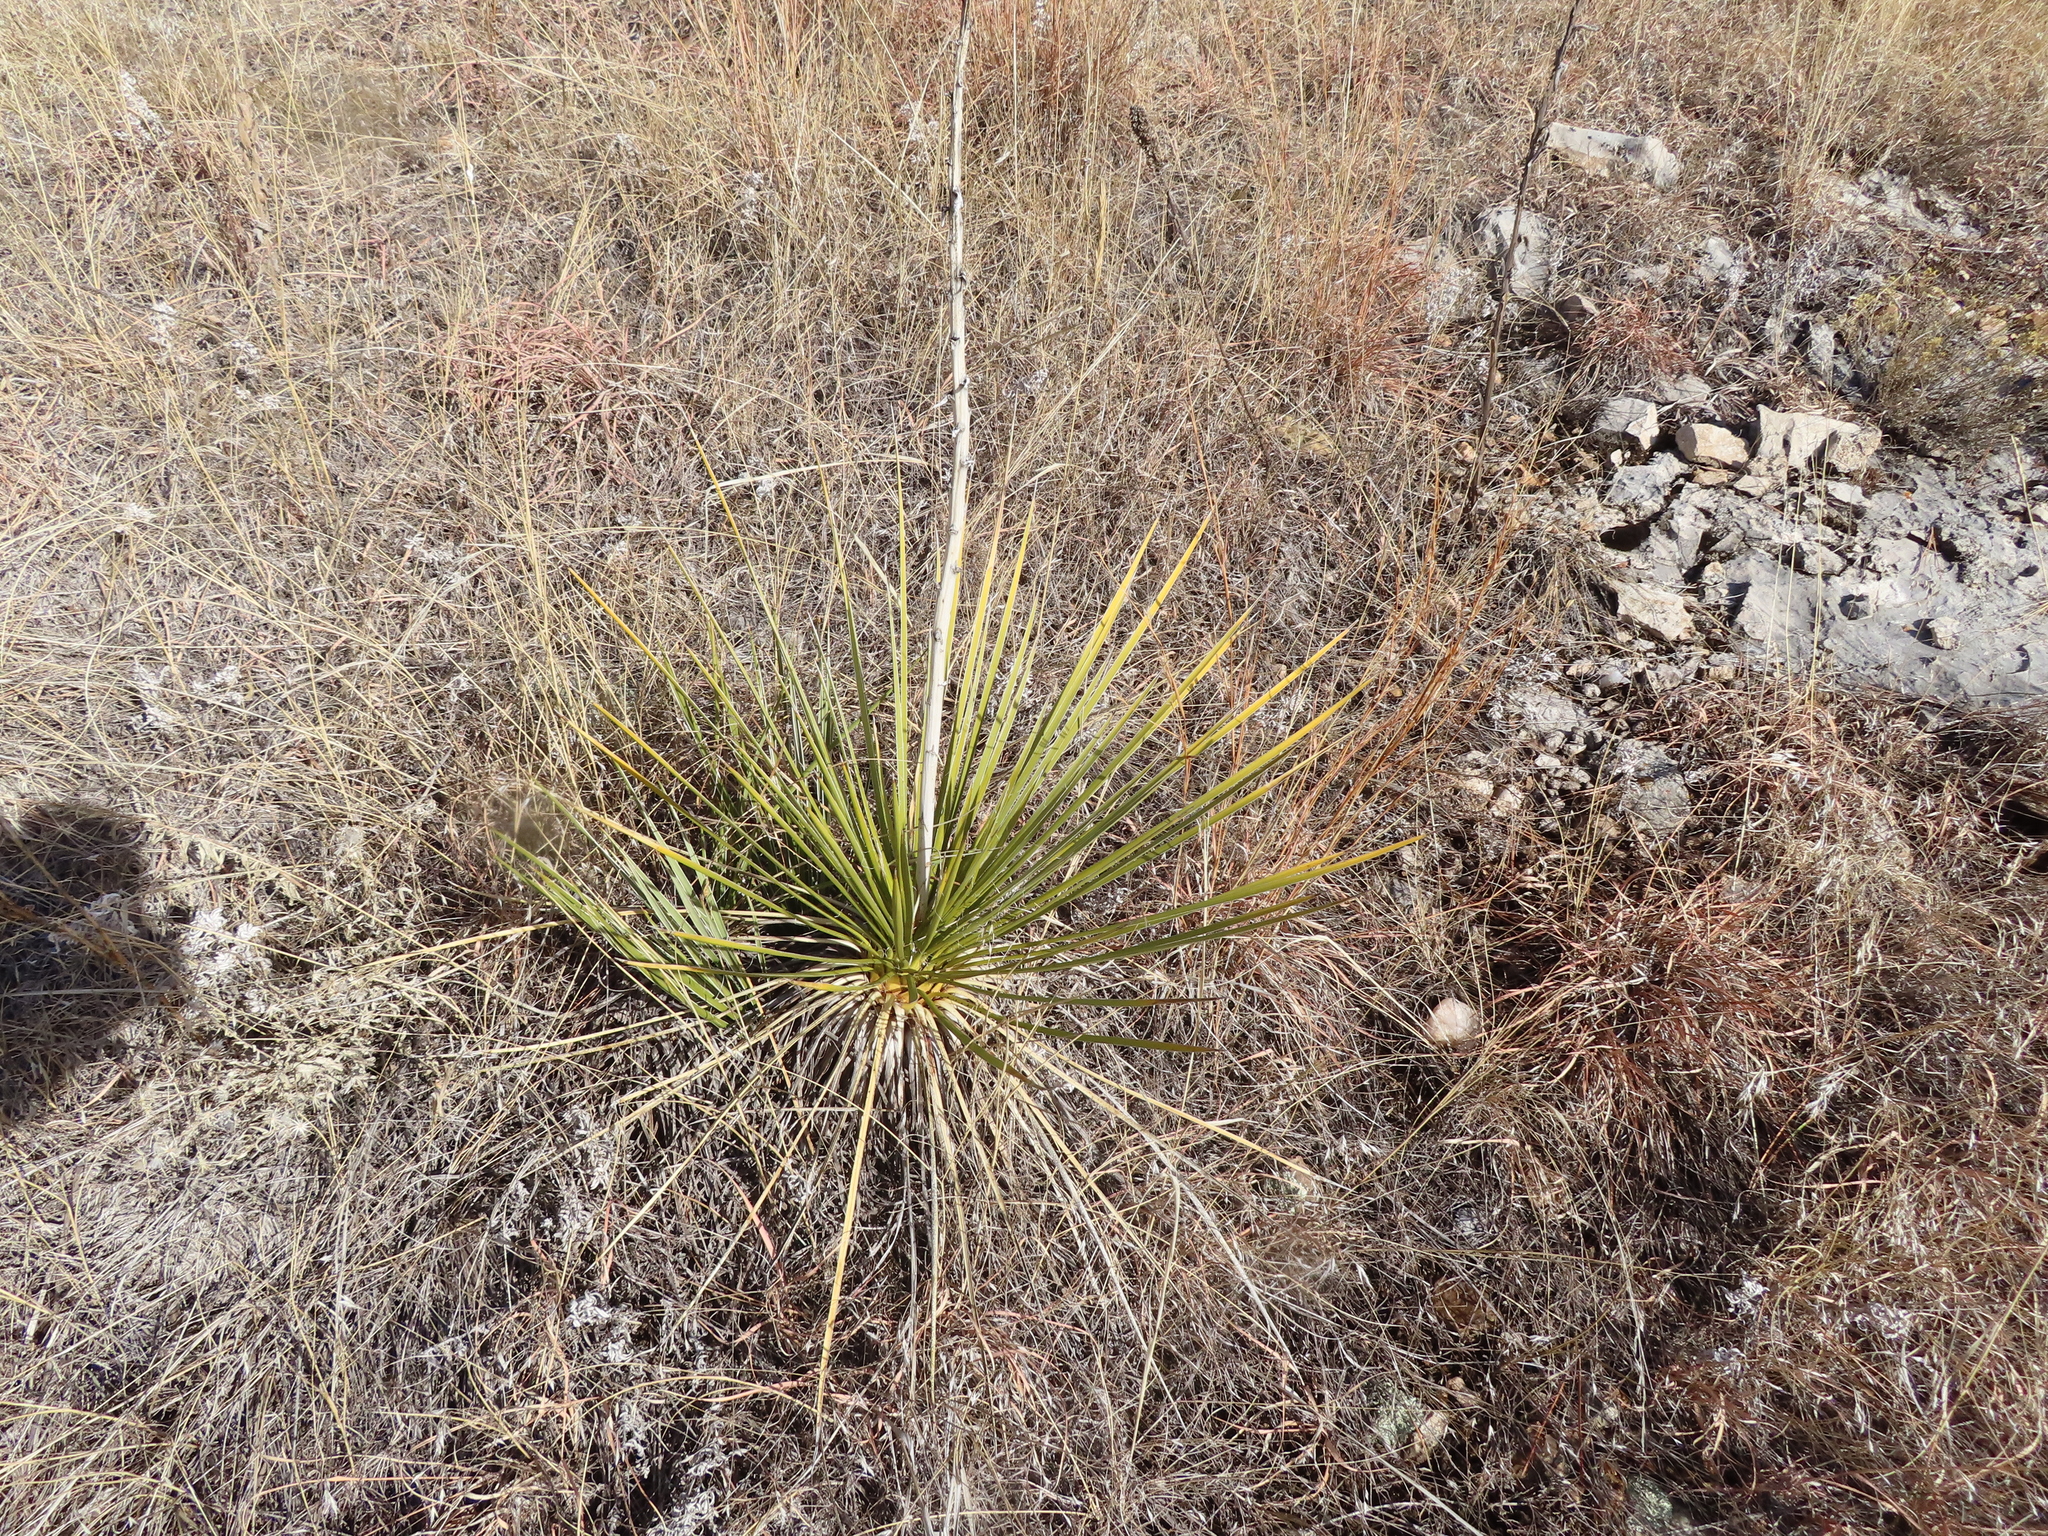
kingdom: Plantae
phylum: Tracheophyta
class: Liliopsida
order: Asparagales
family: Asparagaceae
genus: Yucca
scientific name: Yucca glauca
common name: Great plains yucca
